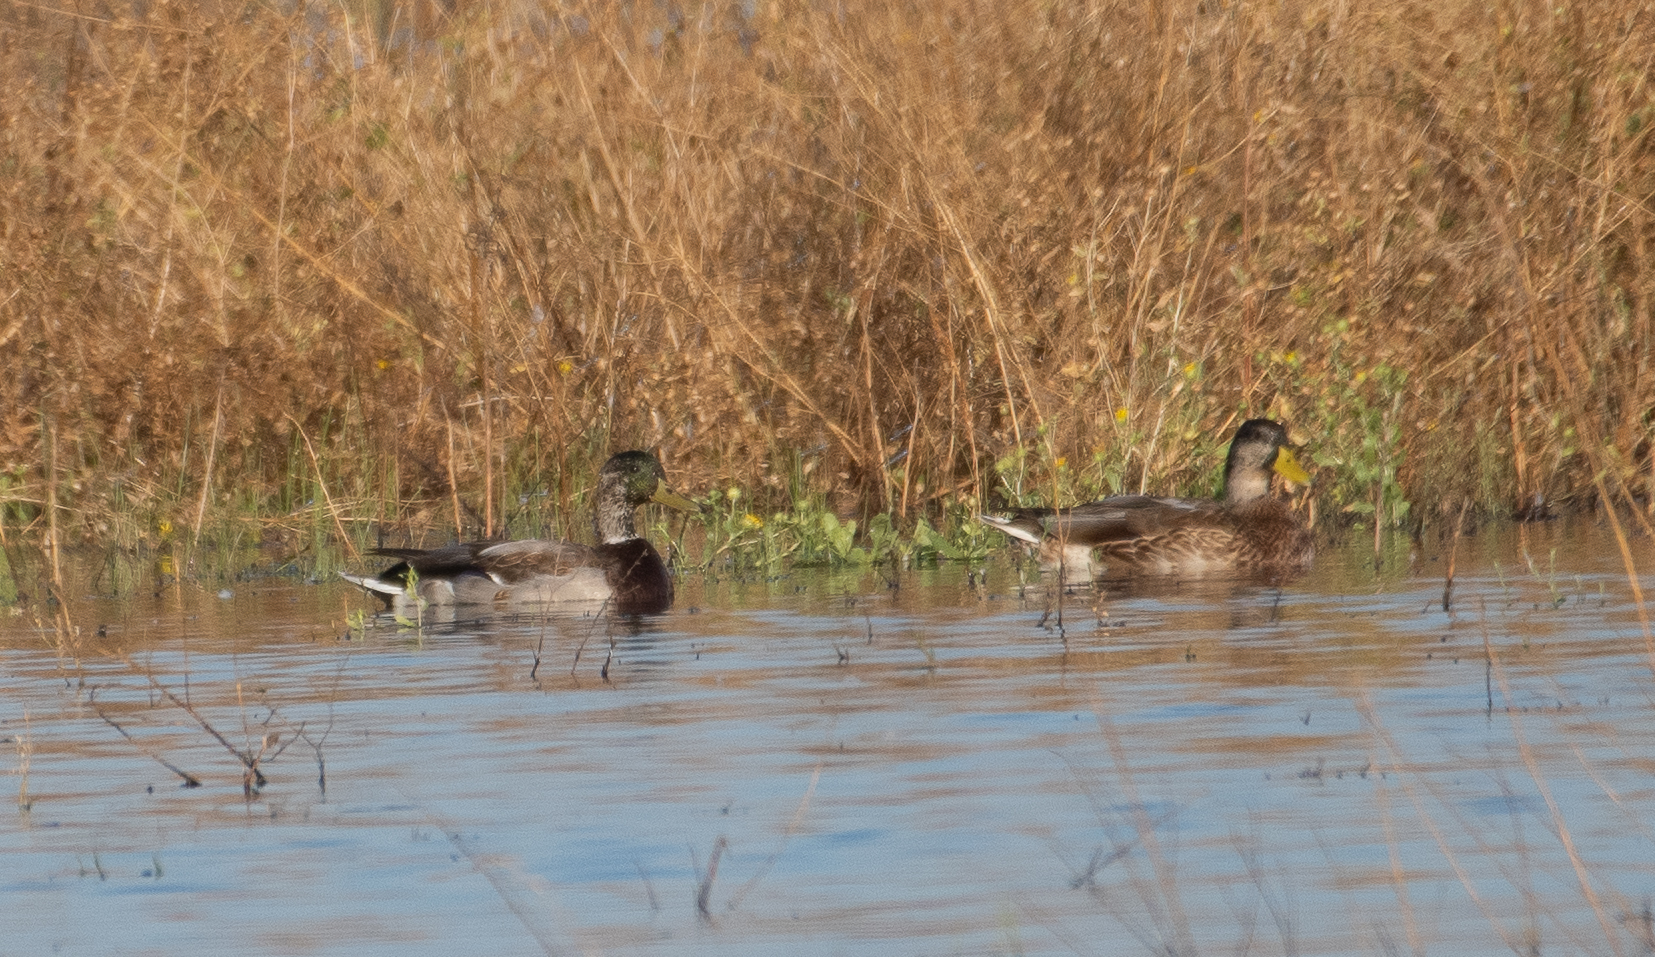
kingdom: Animalia
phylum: Chordata
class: Aves
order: Anseriformes
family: Anatidae
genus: Anas
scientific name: Anas platyrhynchos
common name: Mallard
